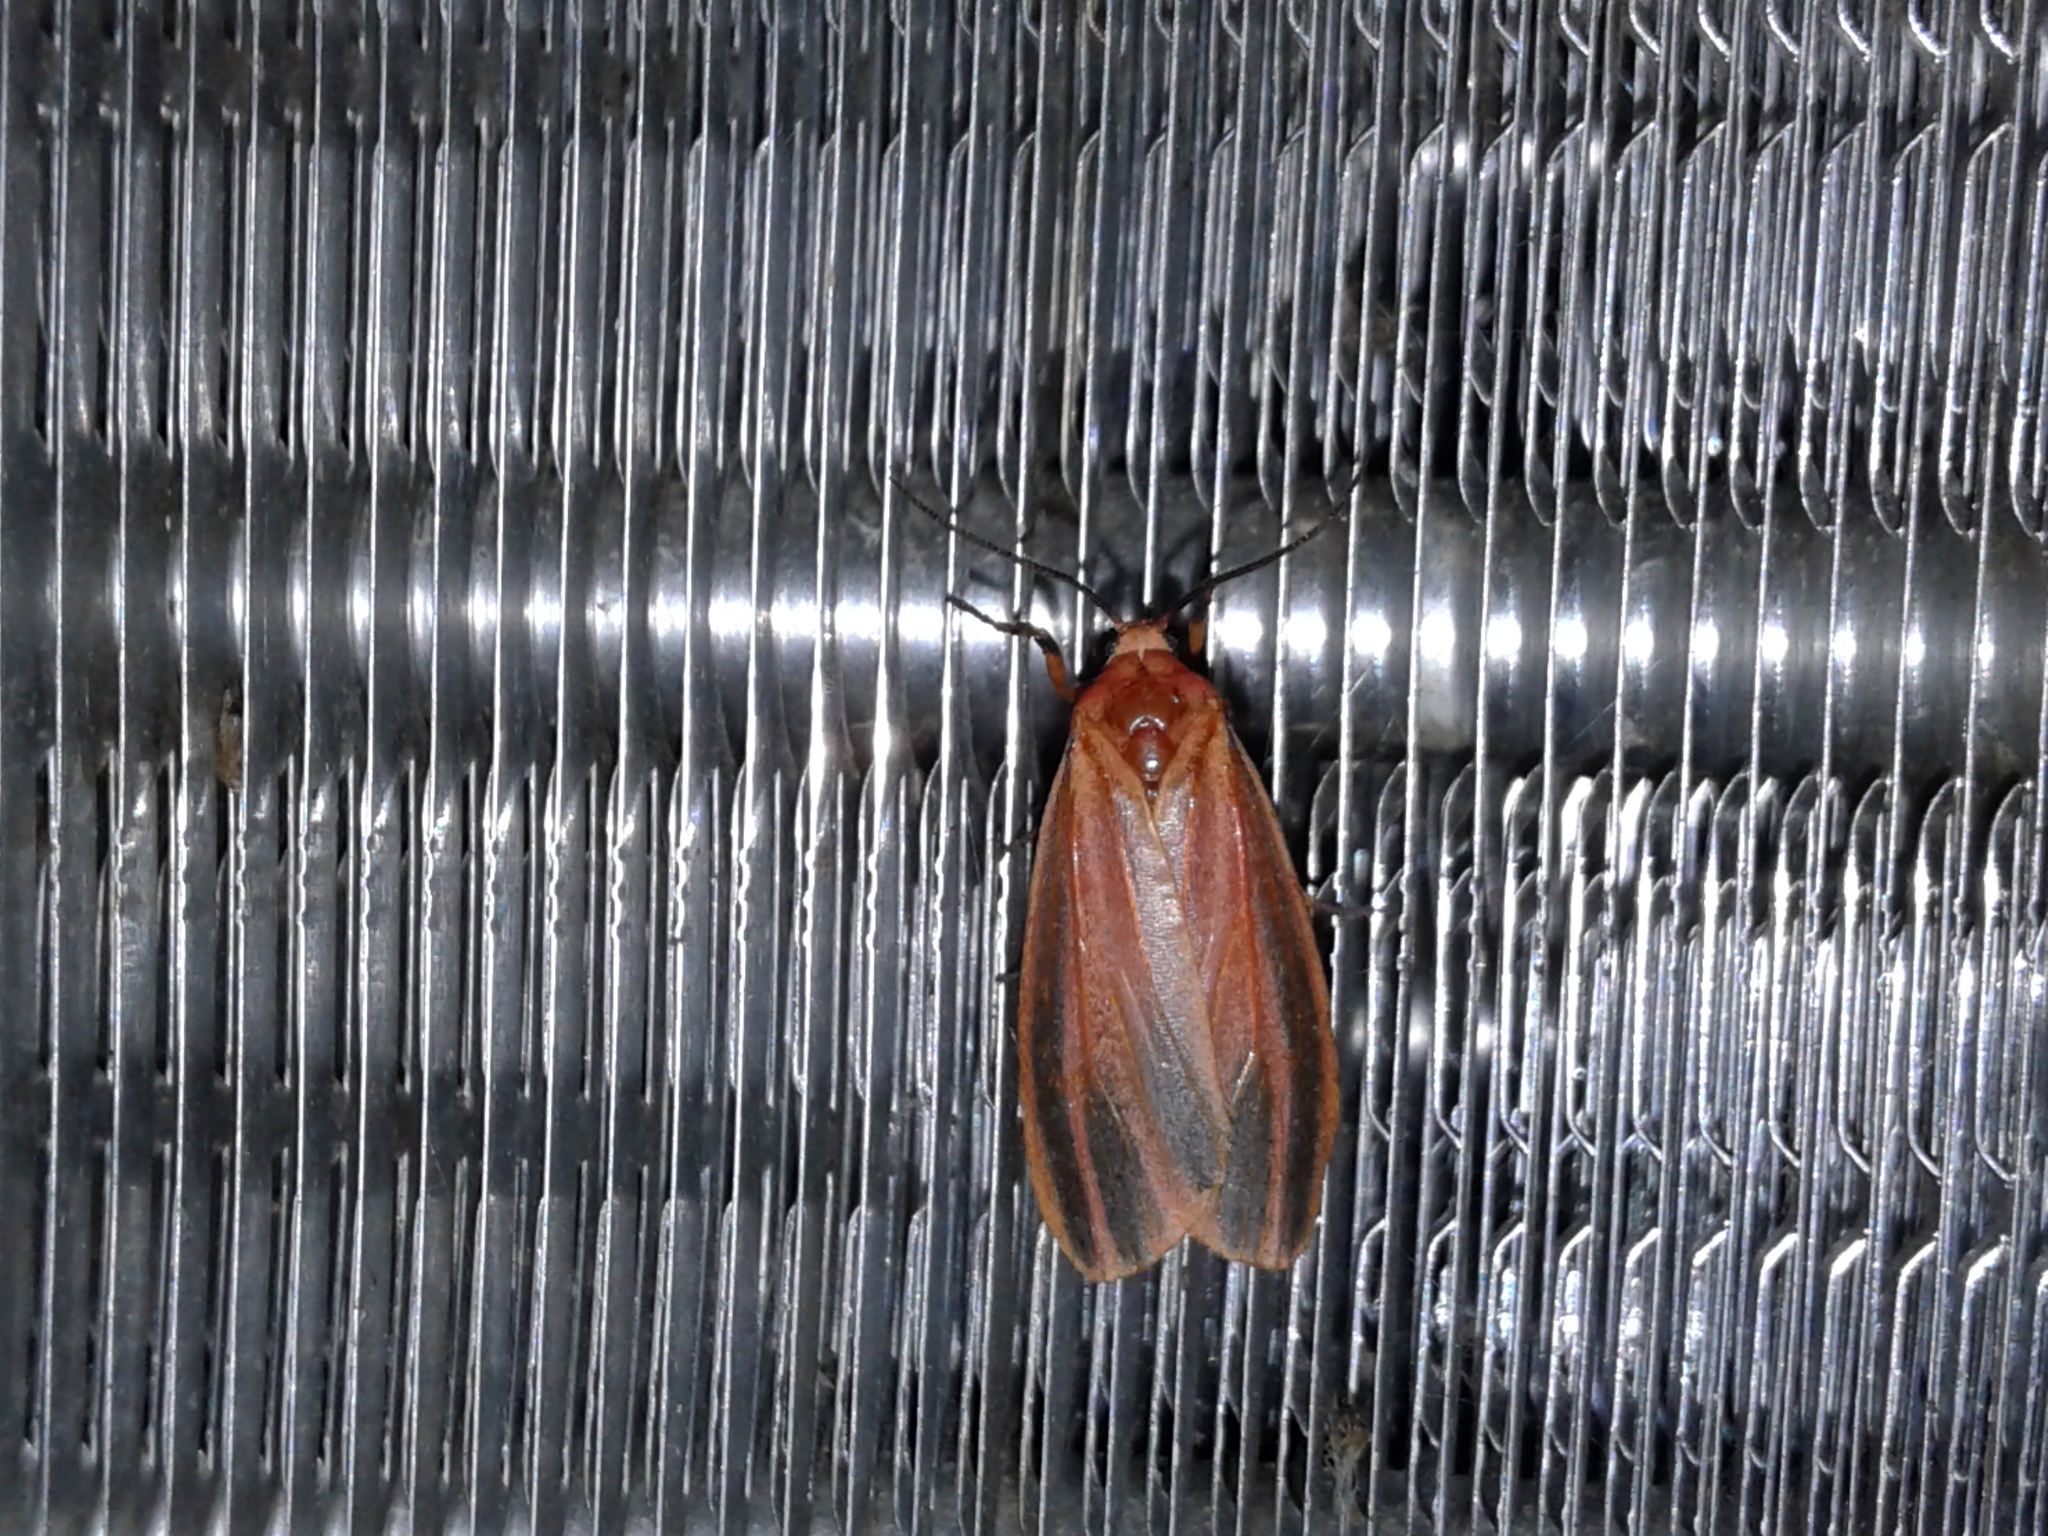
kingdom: Animalia
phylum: Arthropoda
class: Insecta
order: Lepidoptera
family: Erebidae
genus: Hypoprepia
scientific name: Hypoprepia miniata
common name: Scarlet-winged lichen moth
